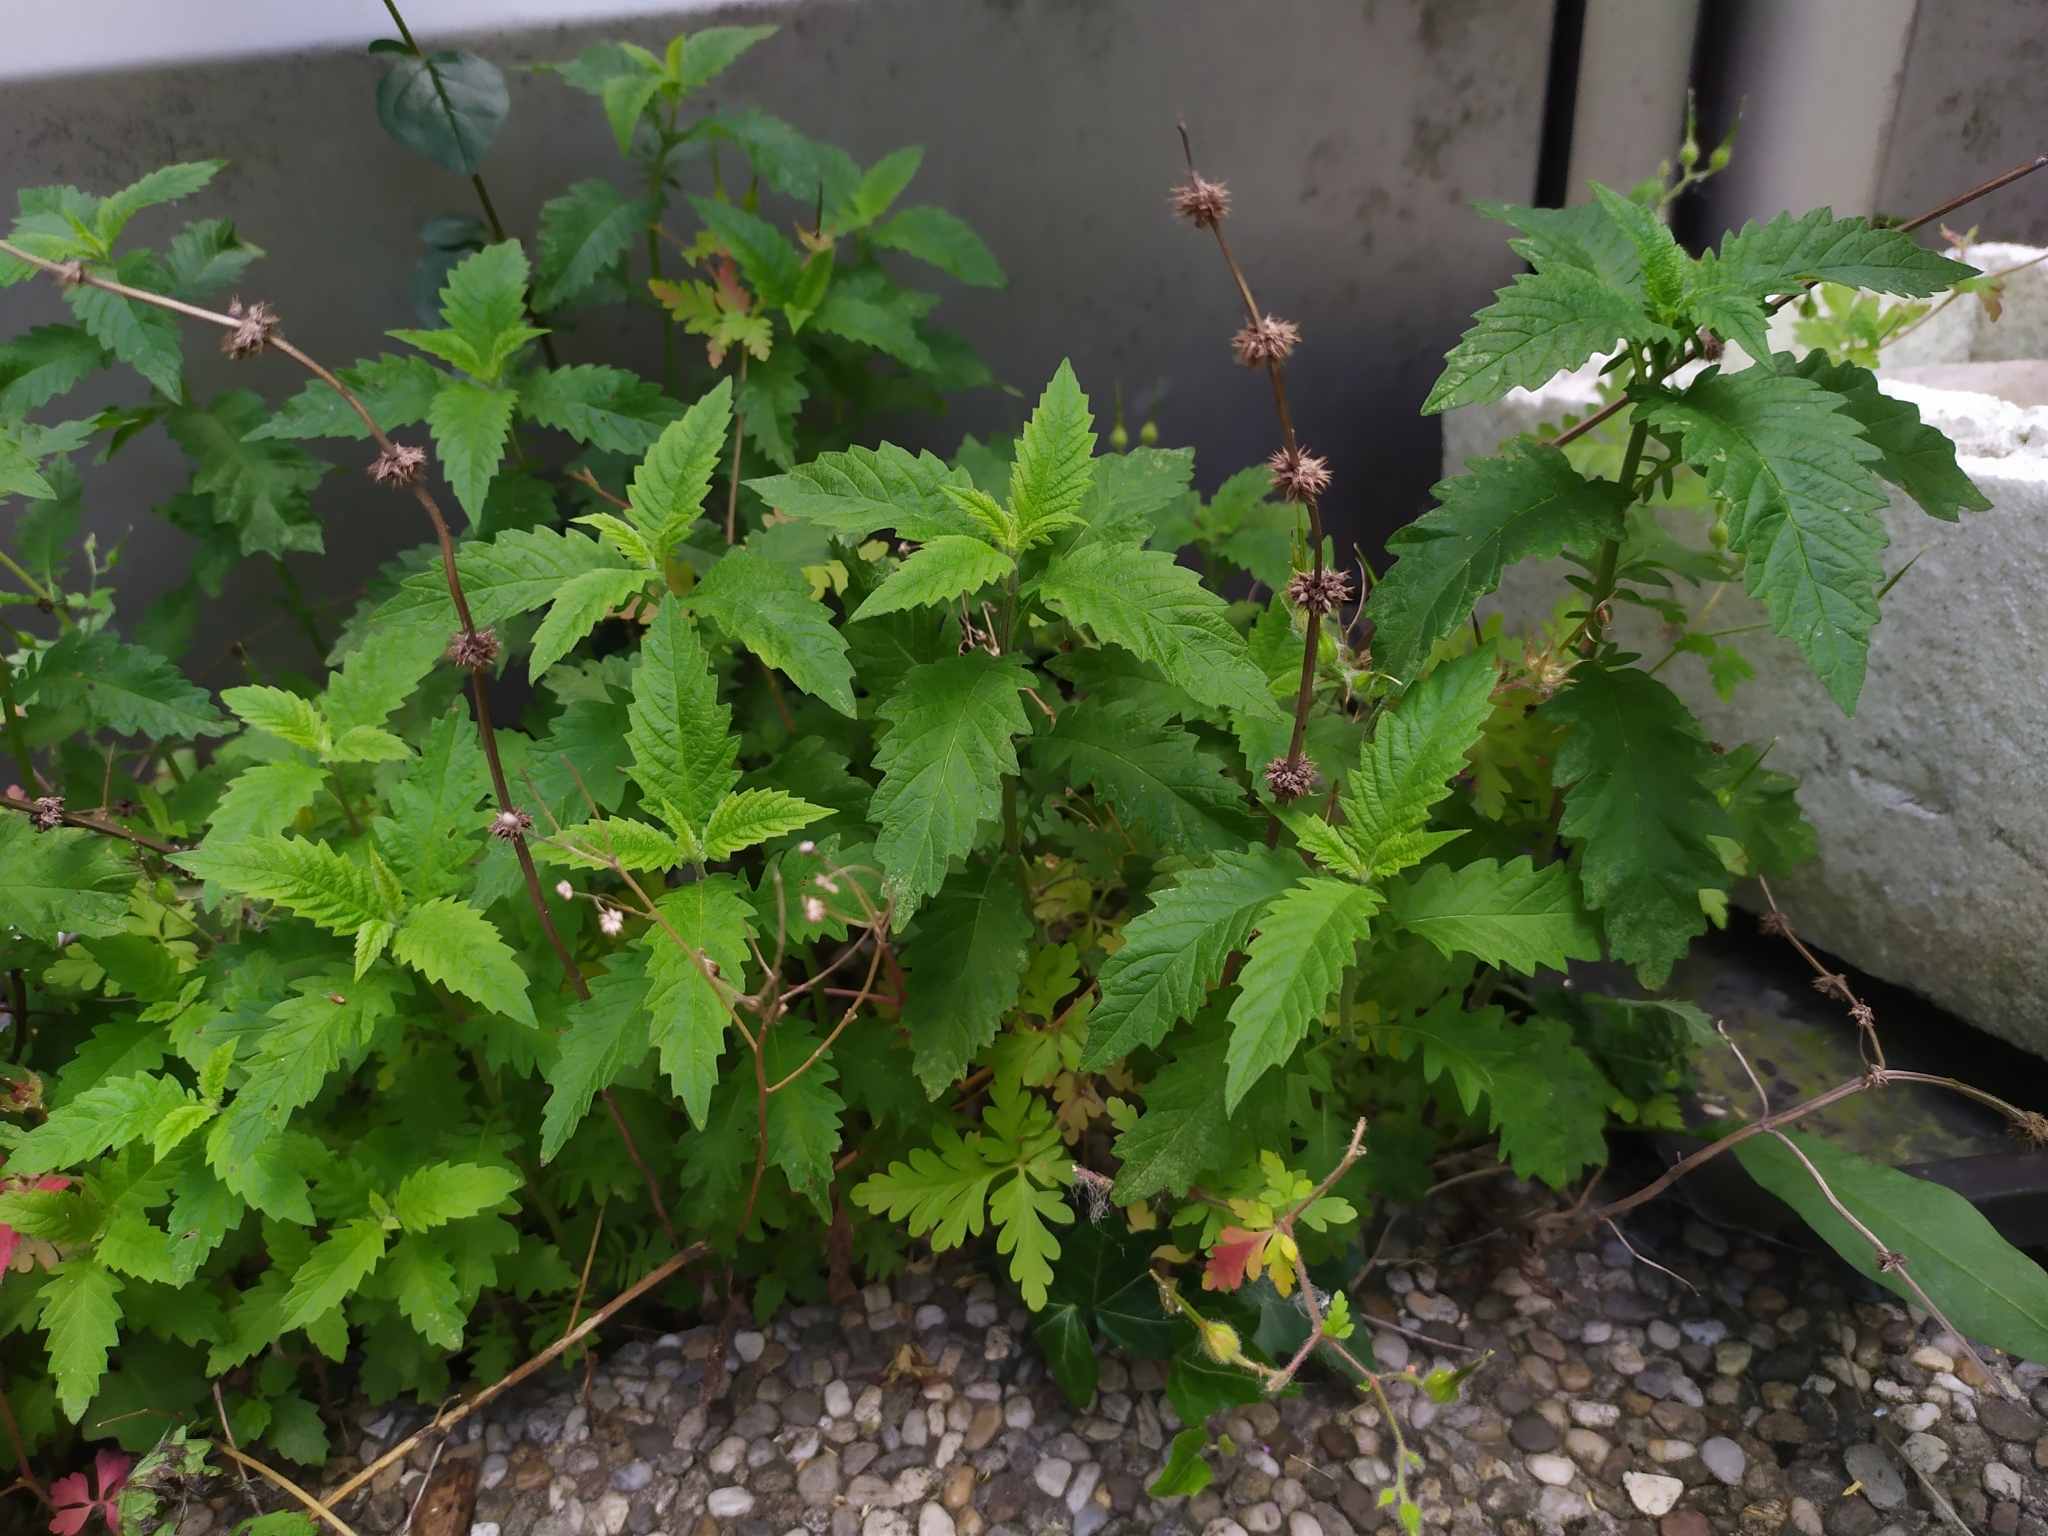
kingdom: Plantae
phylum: Tracheophyta
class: Magnoliopsida
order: Lamiales
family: Lamiaceae
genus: Lycopus
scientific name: Lycopus europaeus
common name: European bugleweed
